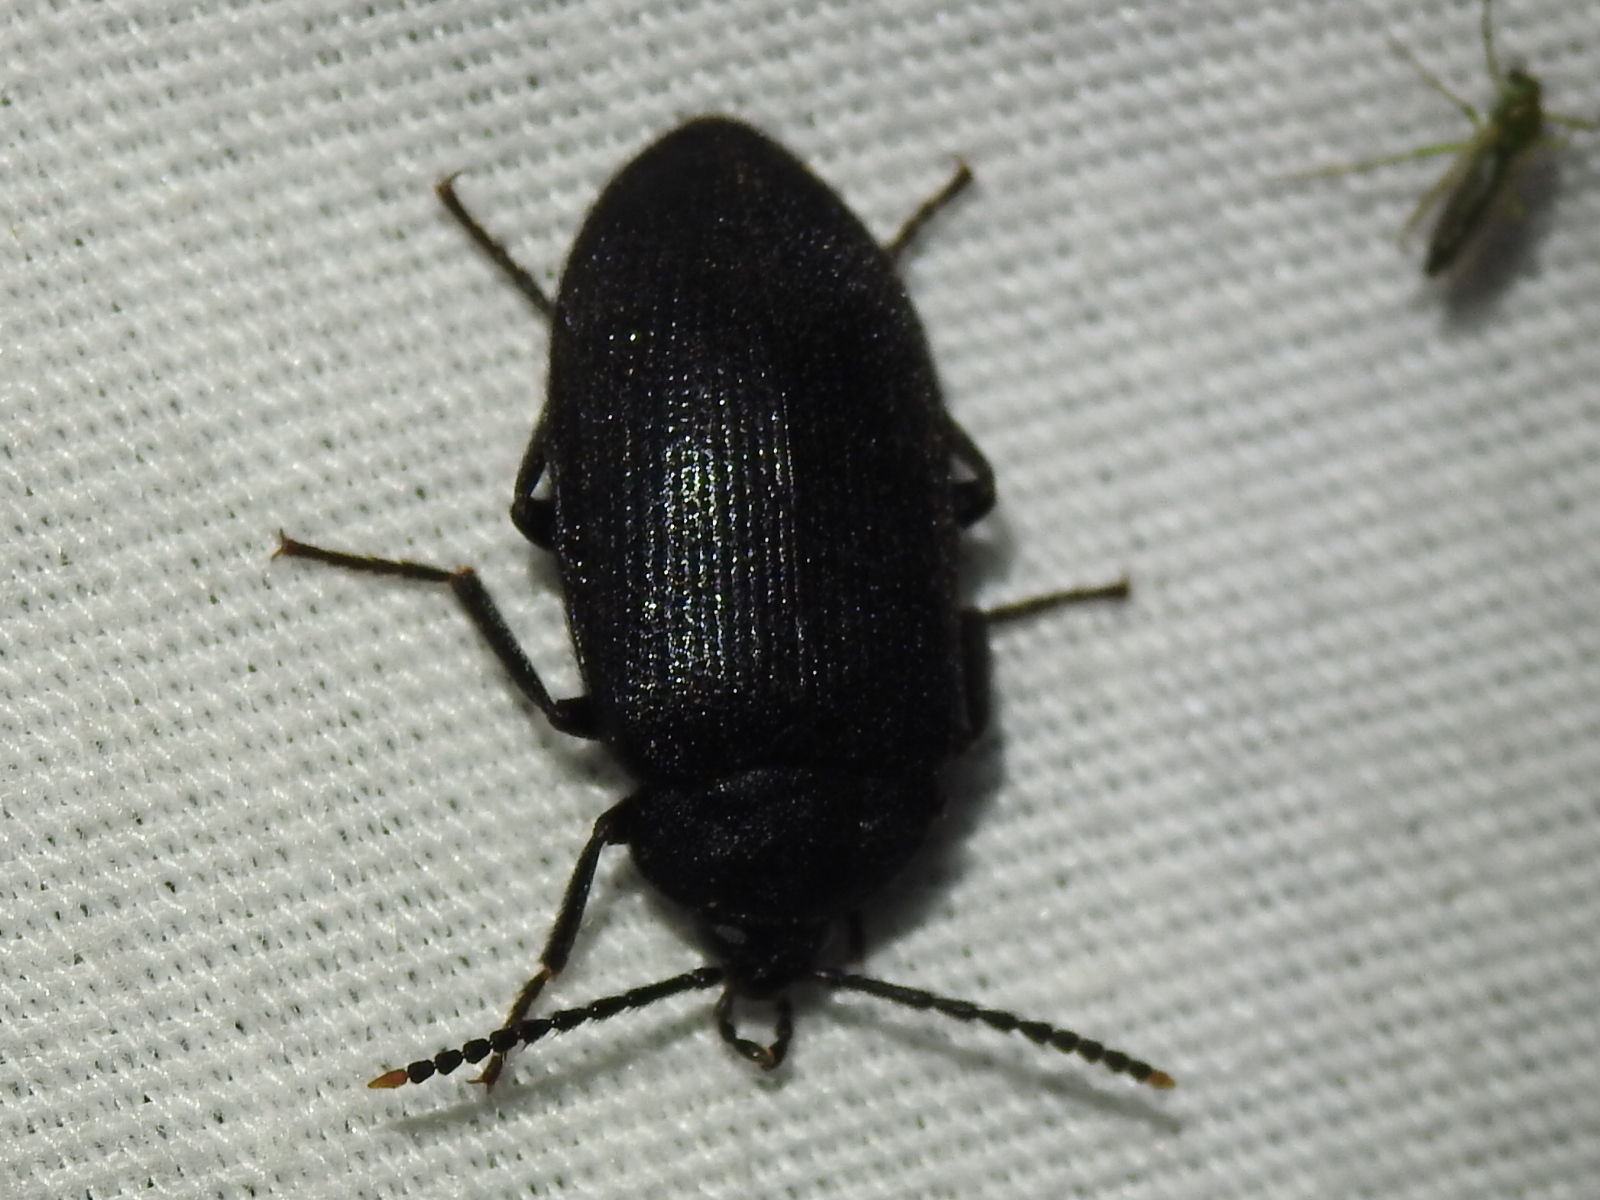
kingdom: Animalia
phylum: Arthropoda
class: Insecta
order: Coleoptera
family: Tetratomidae
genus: Penthe
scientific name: Penthe pimelia
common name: Velvety bark beetle
